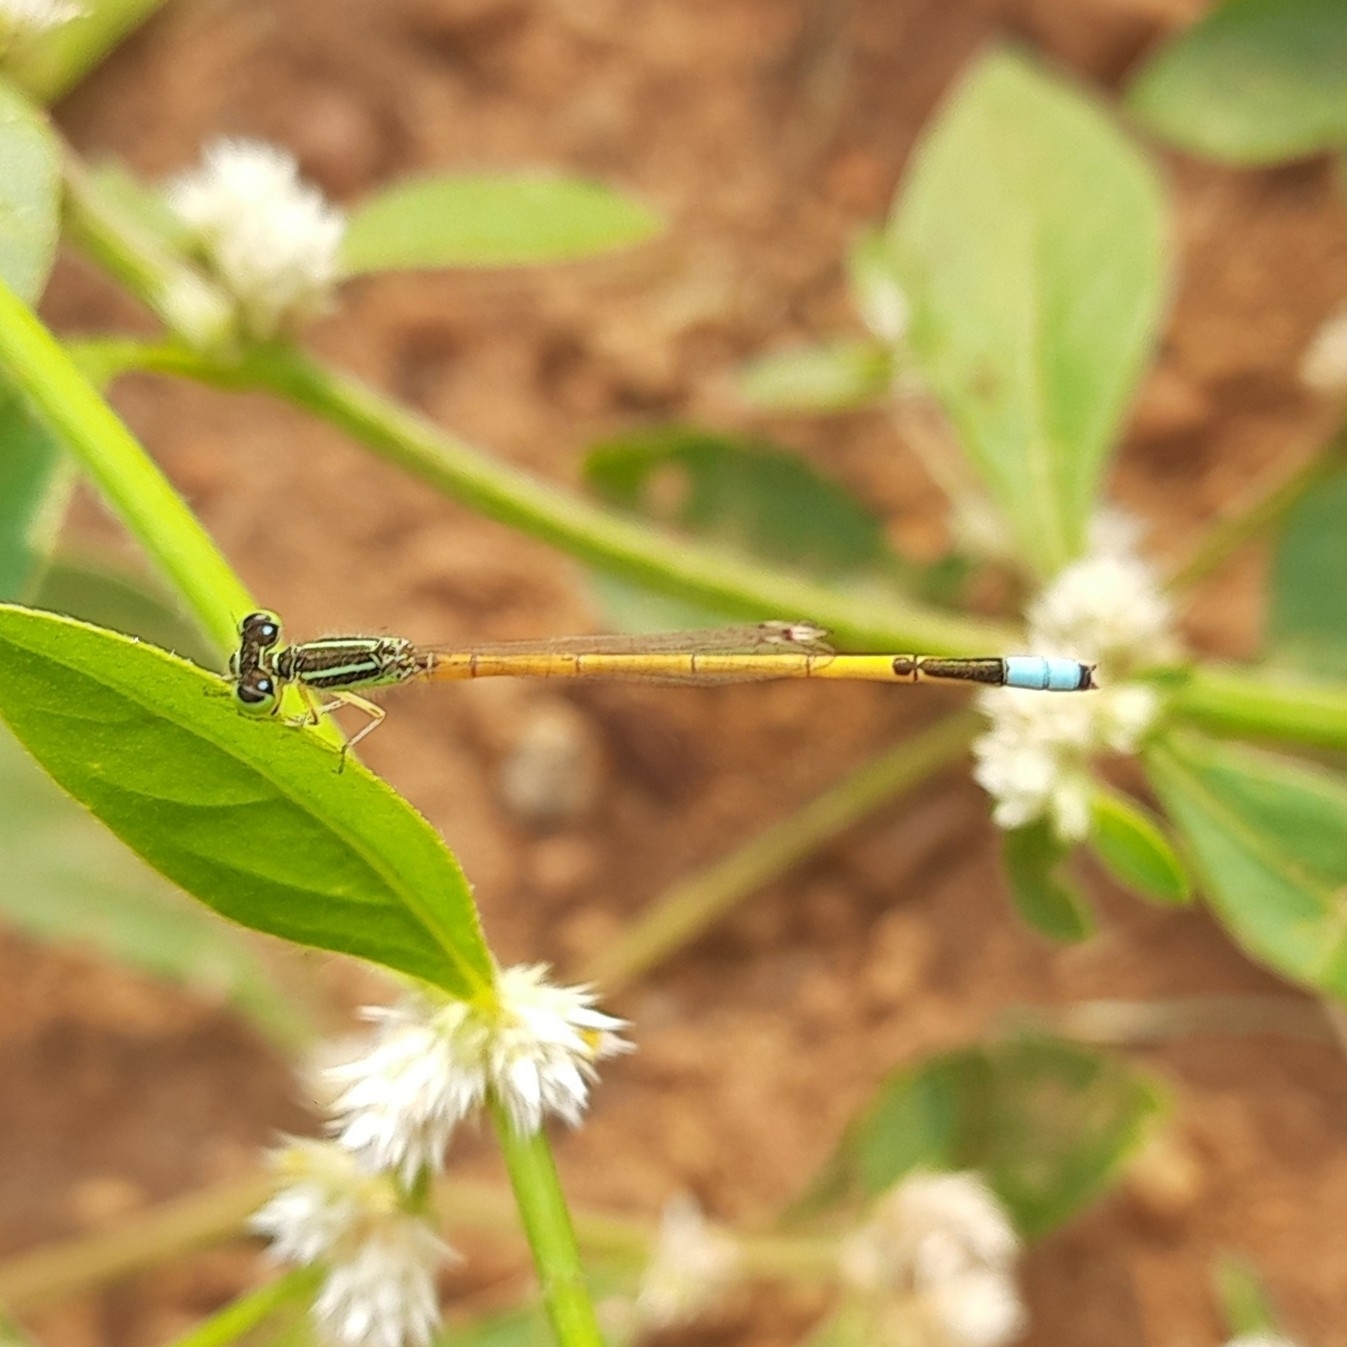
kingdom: Animalia
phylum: Arthropoda
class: Insecta
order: Odonata
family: Coenagrionidae
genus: Ischnura
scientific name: Ischnura rubilio
